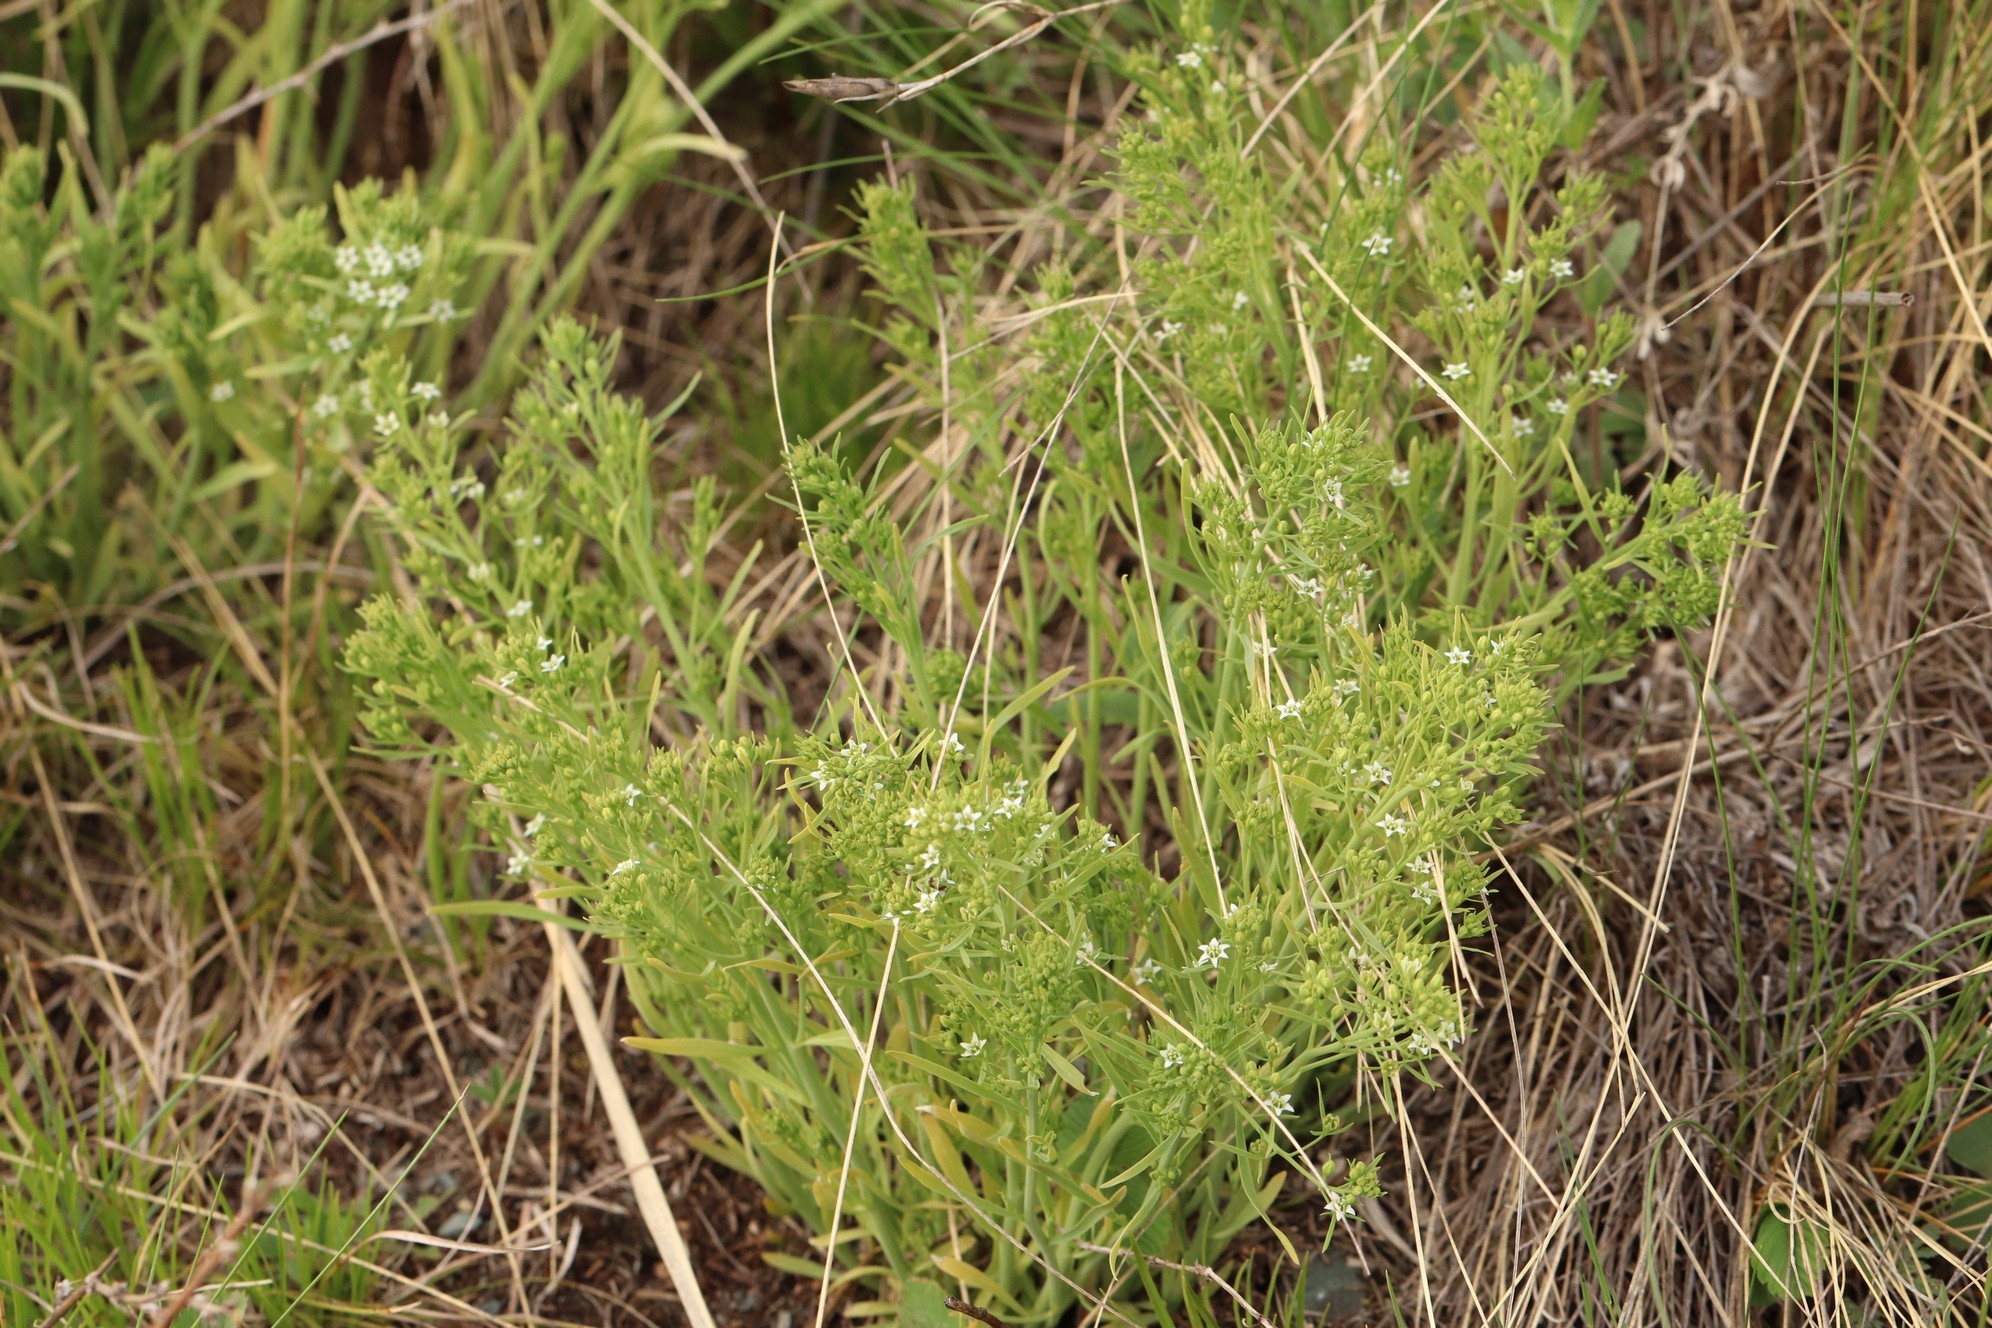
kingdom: Plantae
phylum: Tracheophyta
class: Magnoliopsida
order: Santalales
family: Thesiaceae
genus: Thesium
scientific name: Thesium repens
